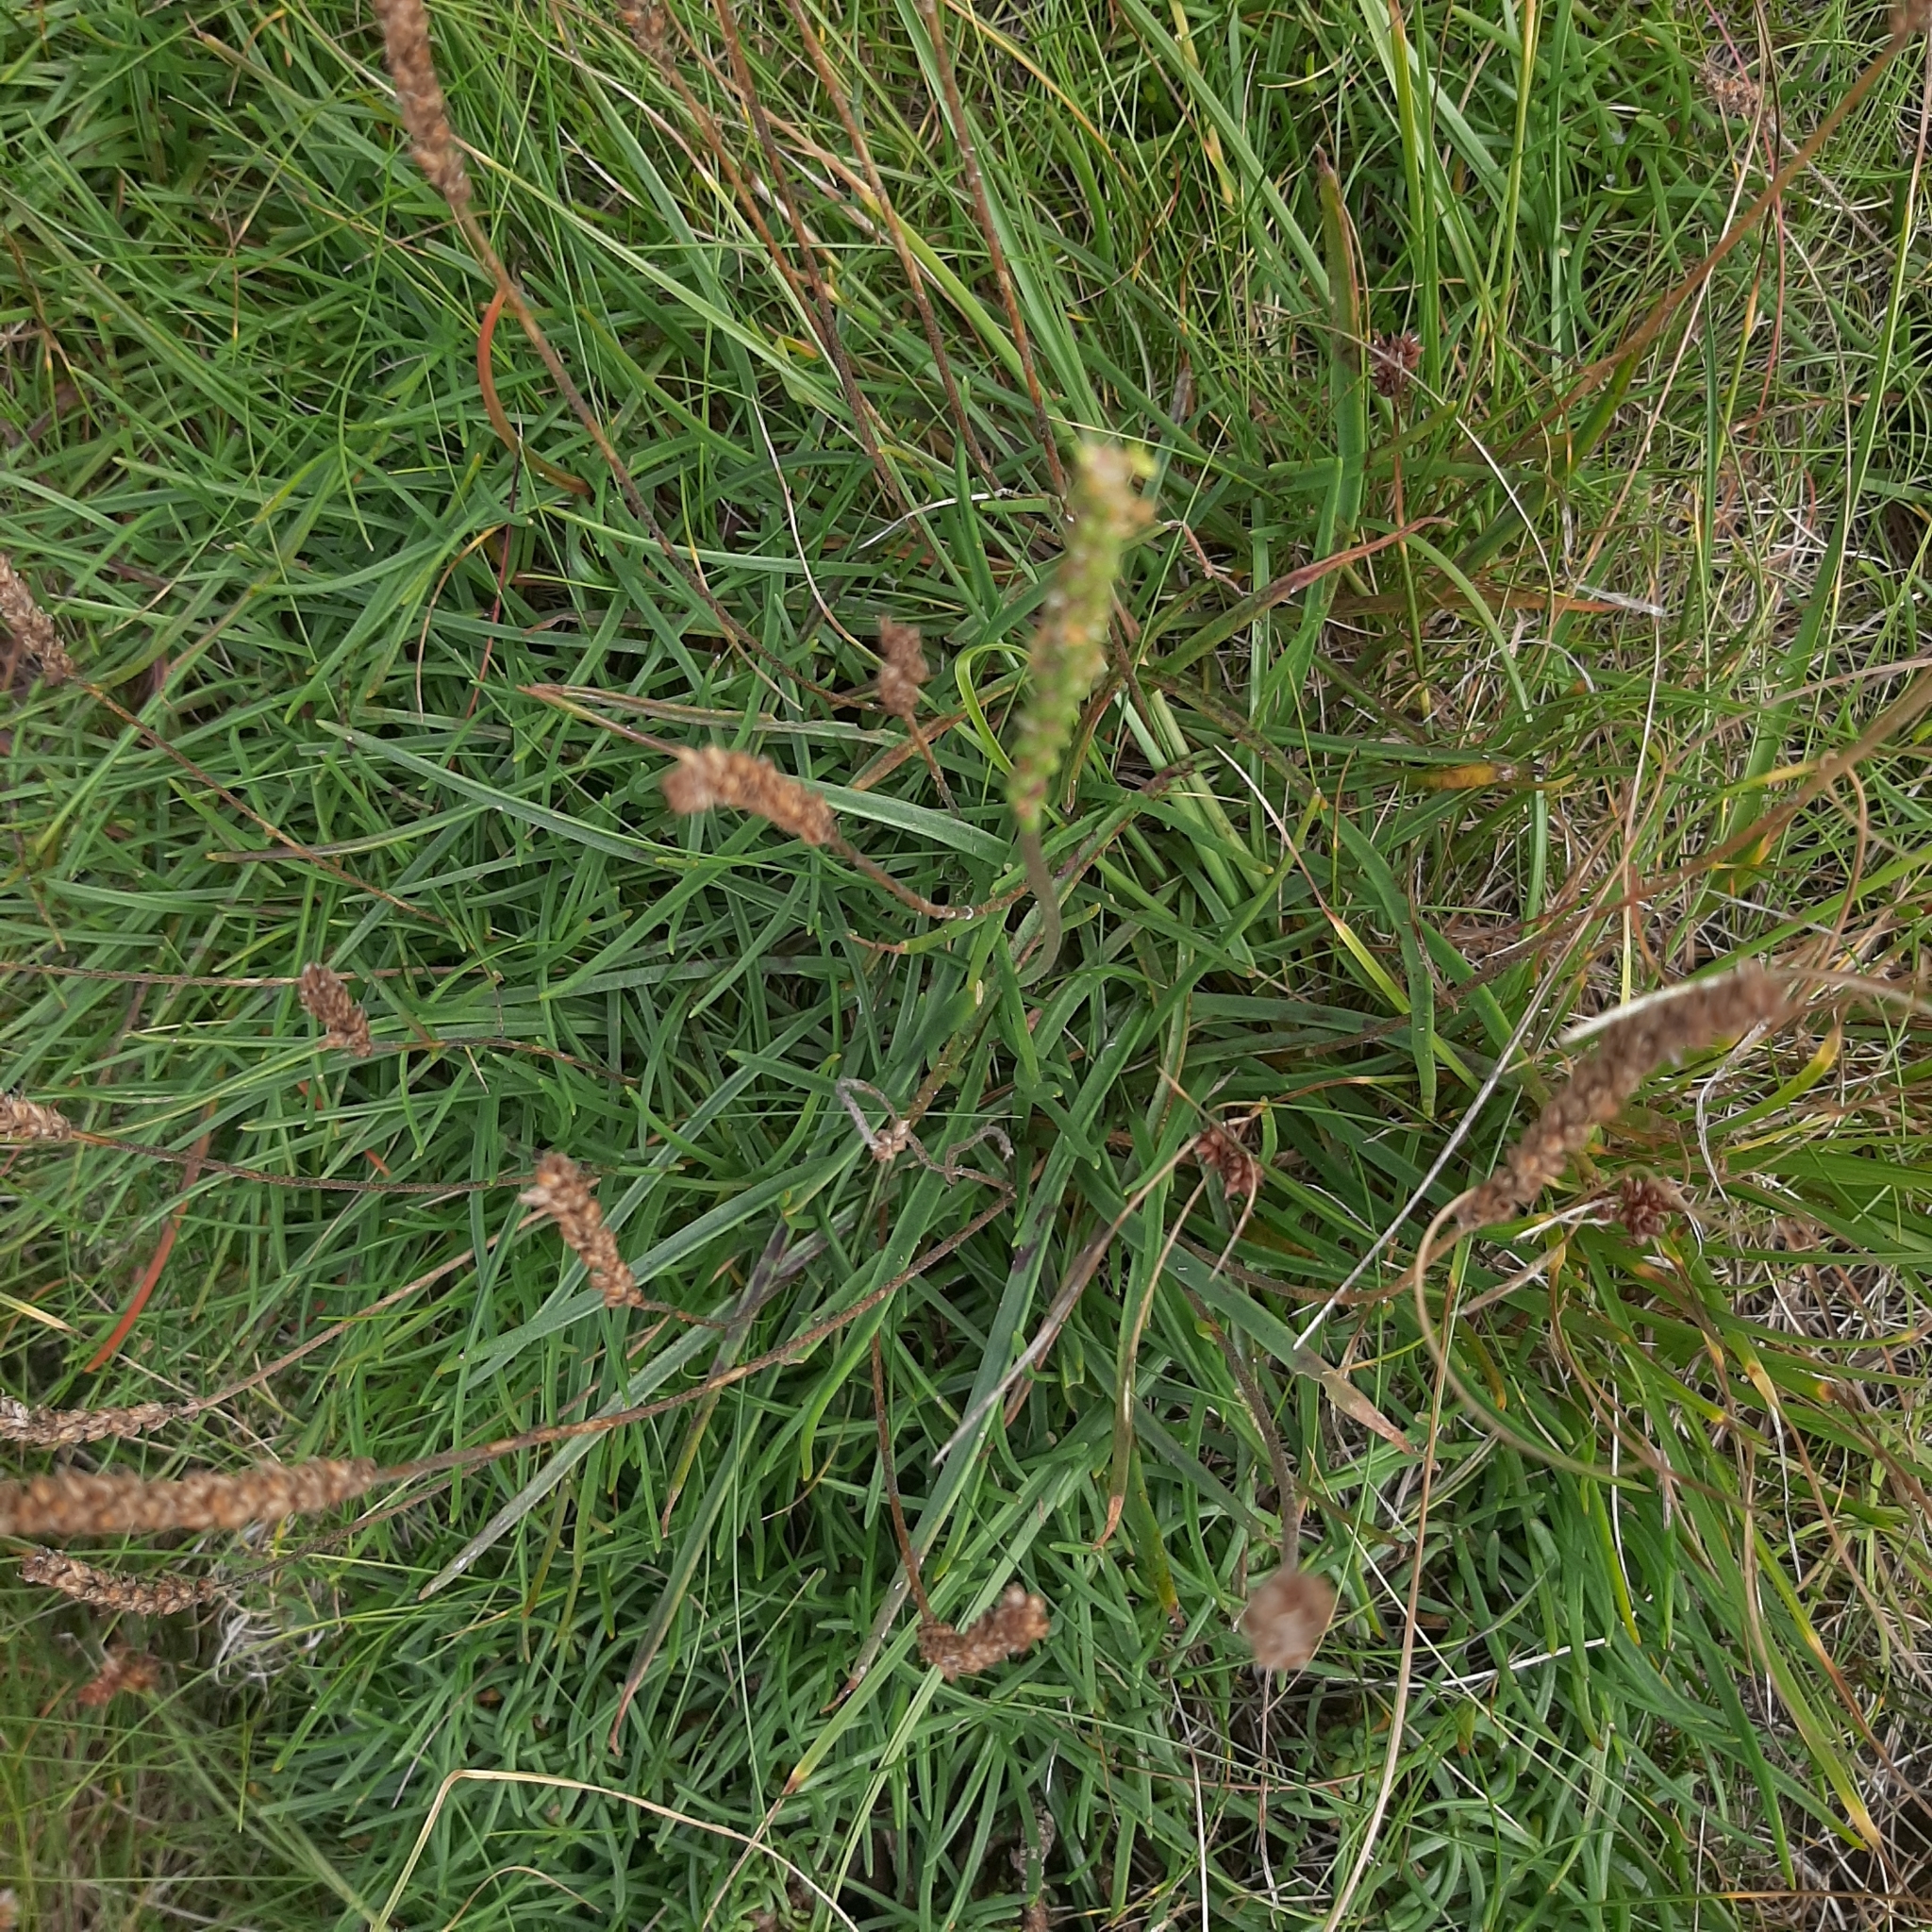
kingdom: Plantae
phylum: Tracheophyta
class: Magnoliopsida
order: Lamiales
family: Plantaginaceae
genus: Plantago
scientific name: Plantago maritima
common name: Sea plantain
